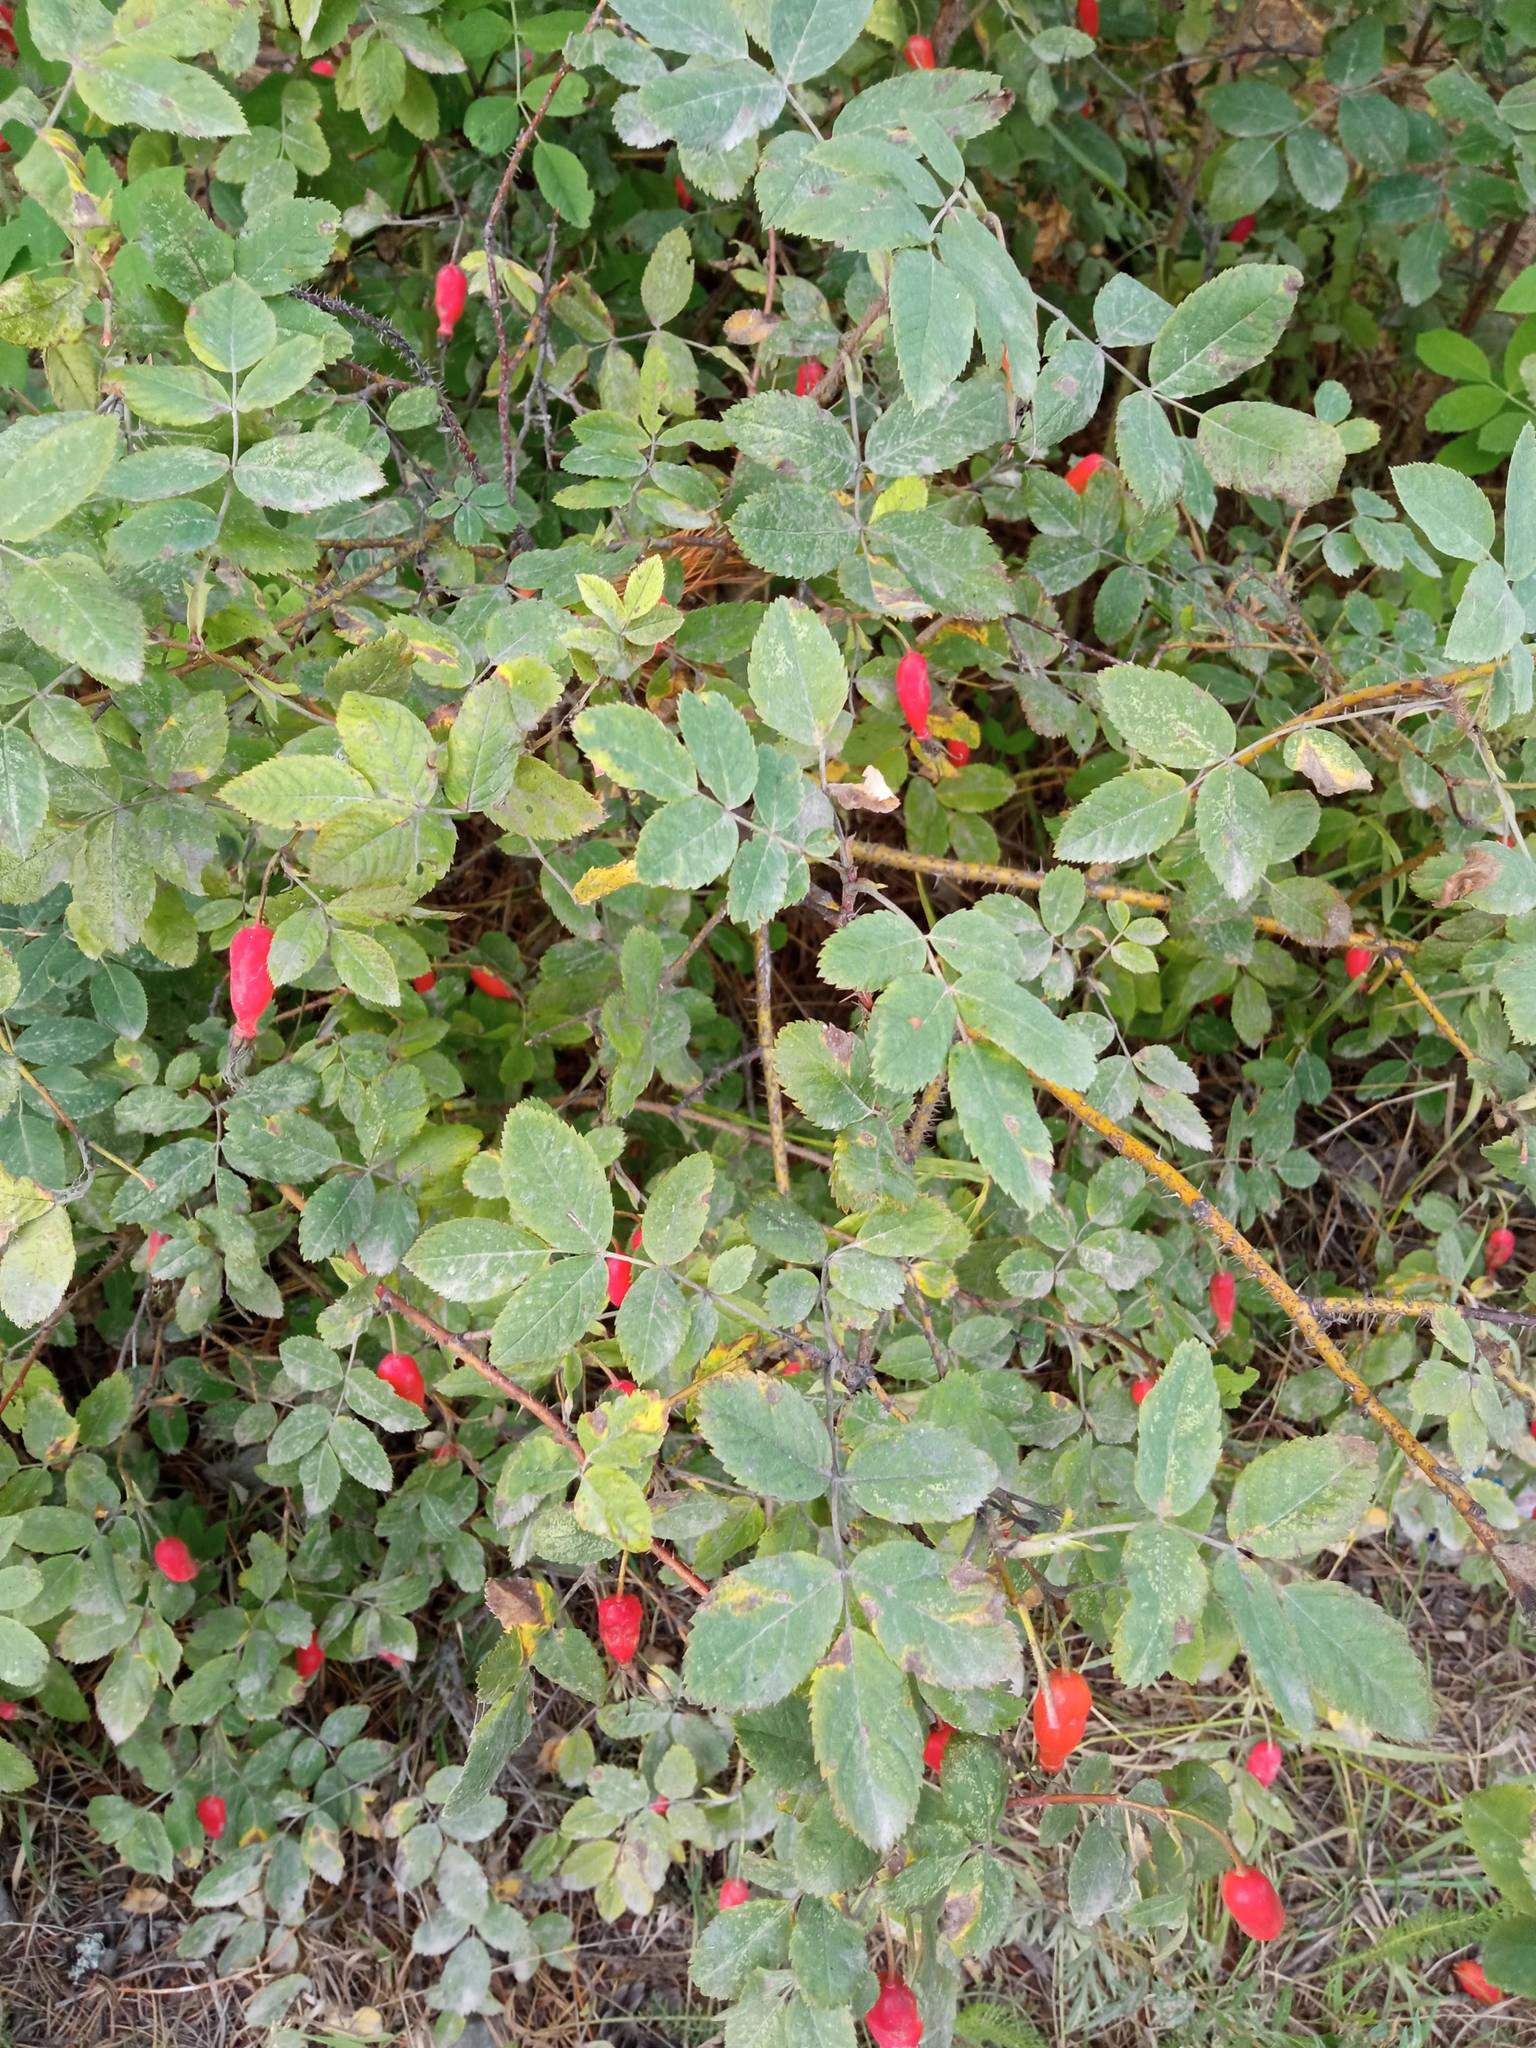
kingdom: Plantae
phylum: Tracheophyta
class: Magnoliopsida
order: Rosales
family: Rosaceae
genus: Rosa
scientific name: Rosa acicularis
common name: Prickly rose
